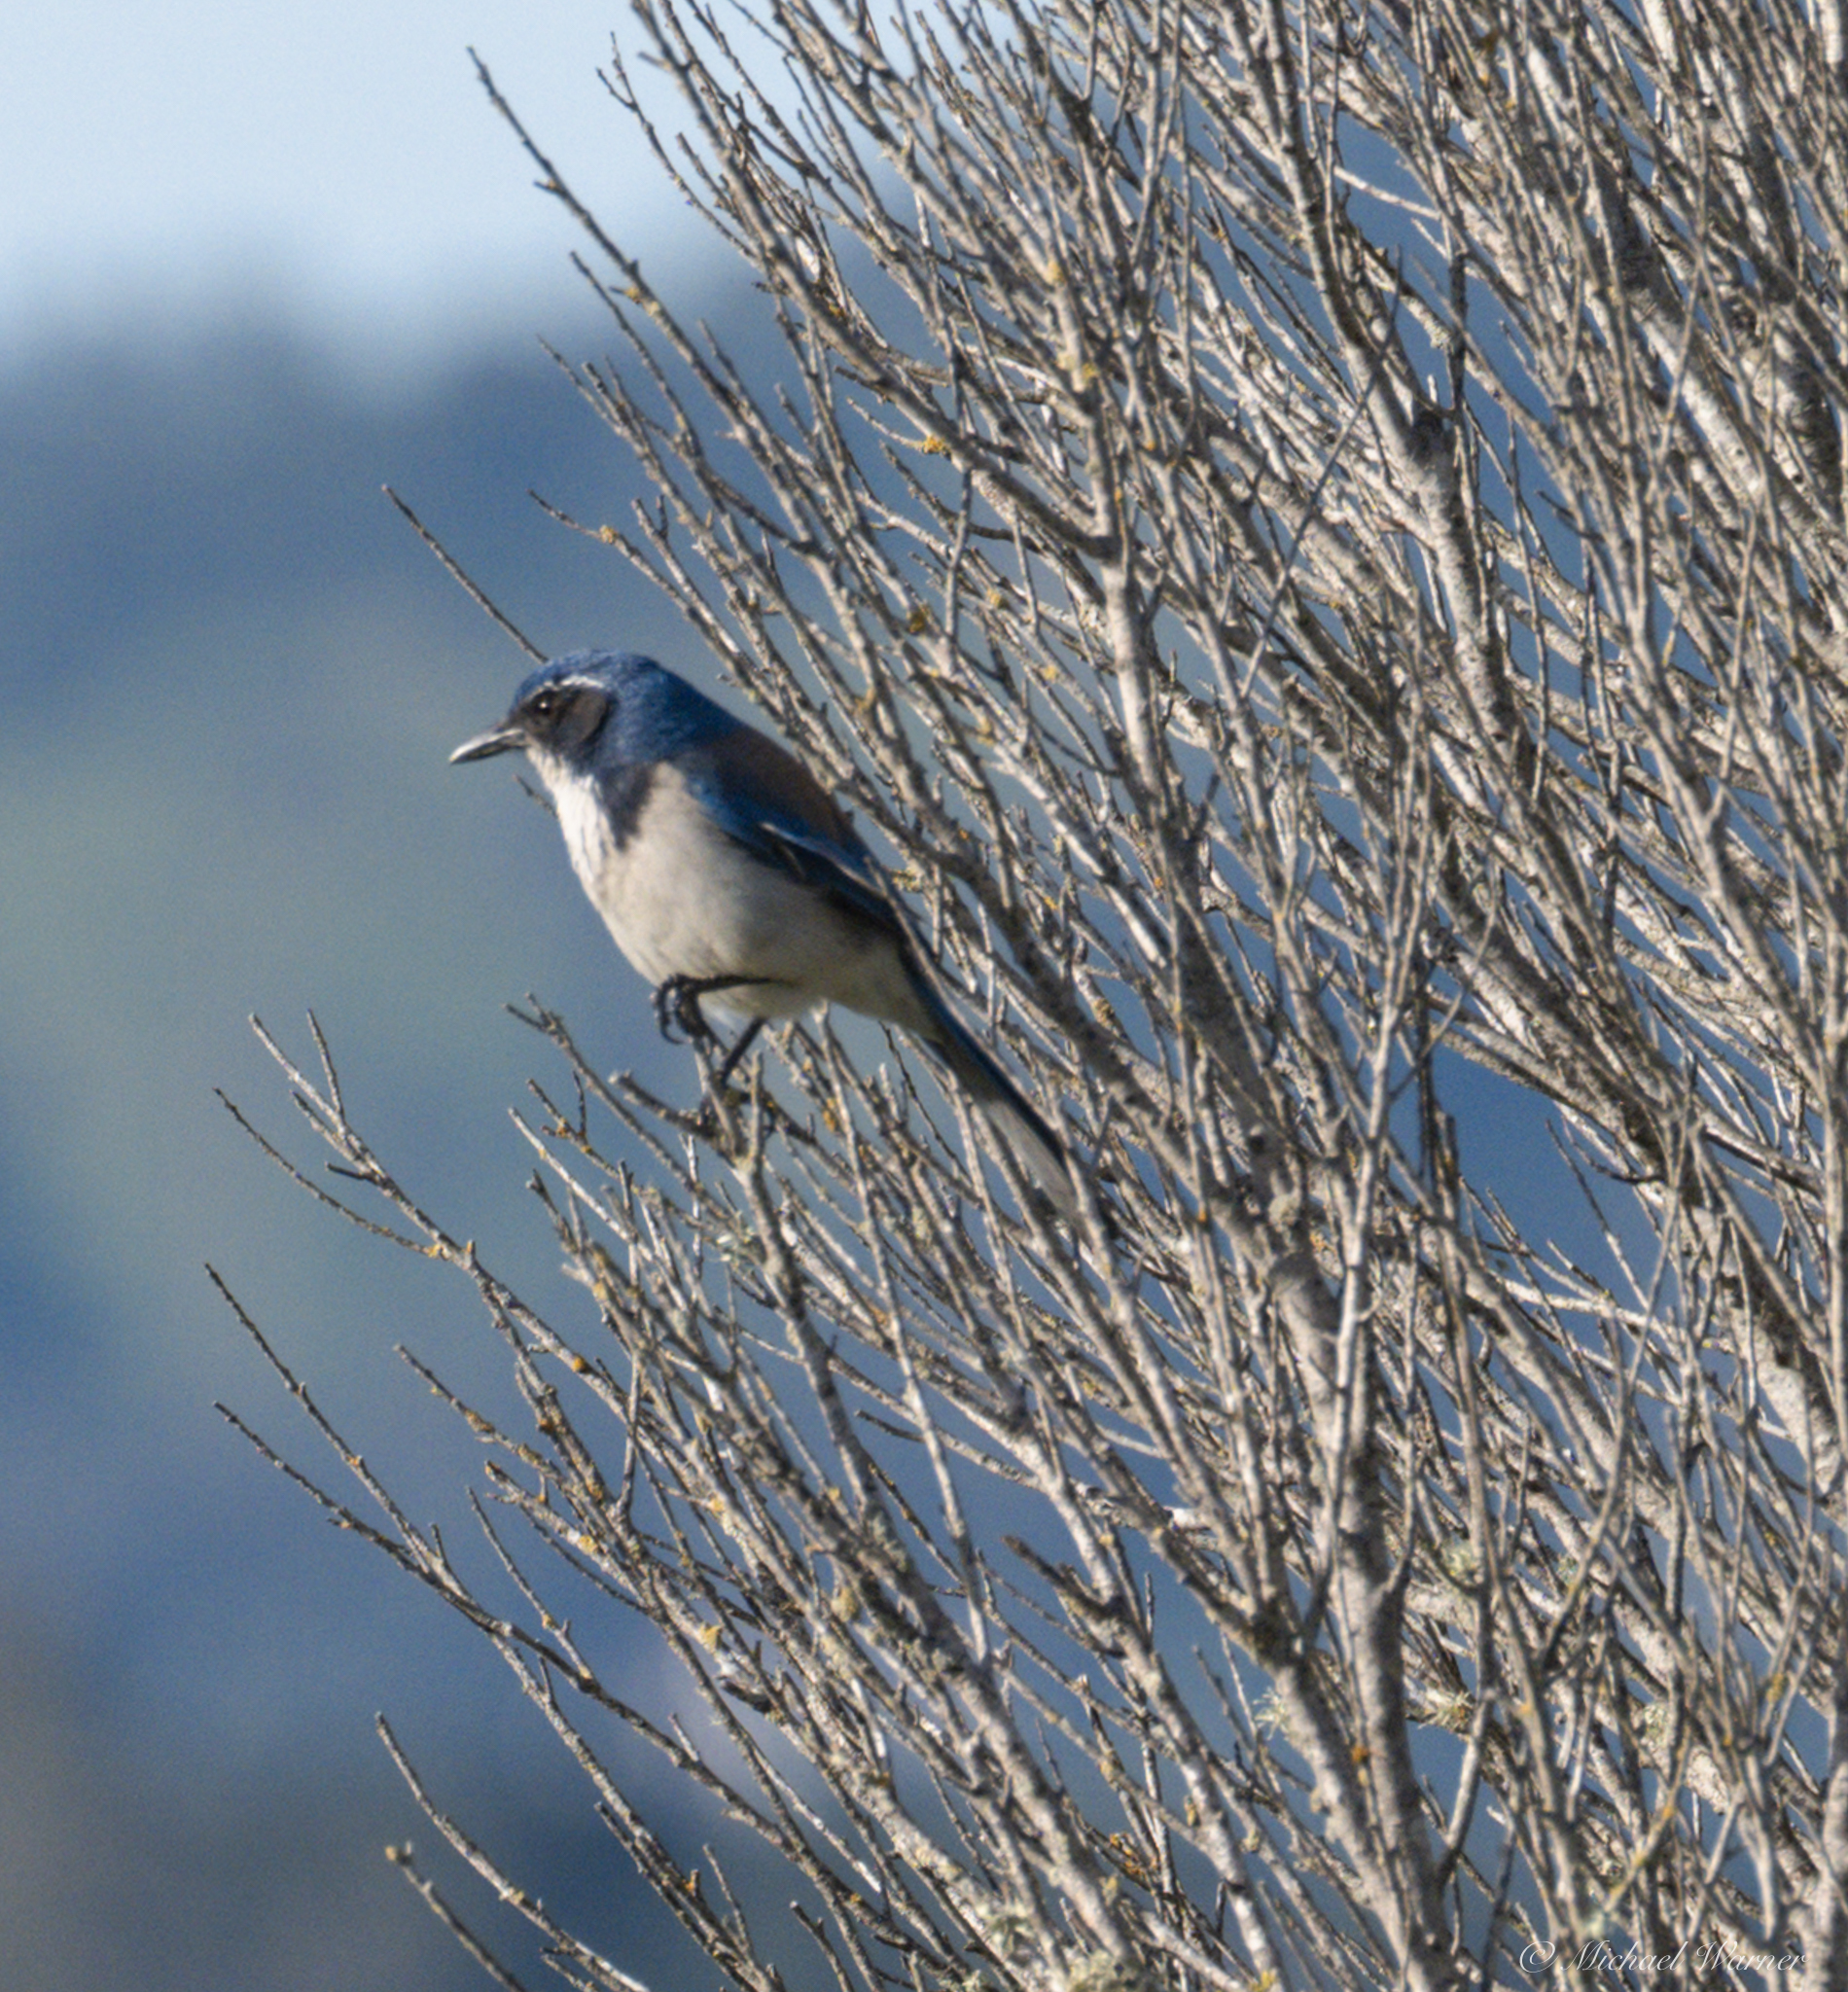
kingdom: Animalia
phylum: Chordata
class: Aves
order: Passeriformes
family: Corvidae
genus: Aphelocoma
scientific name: Aphelocoma californica
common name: California scrub-jay
